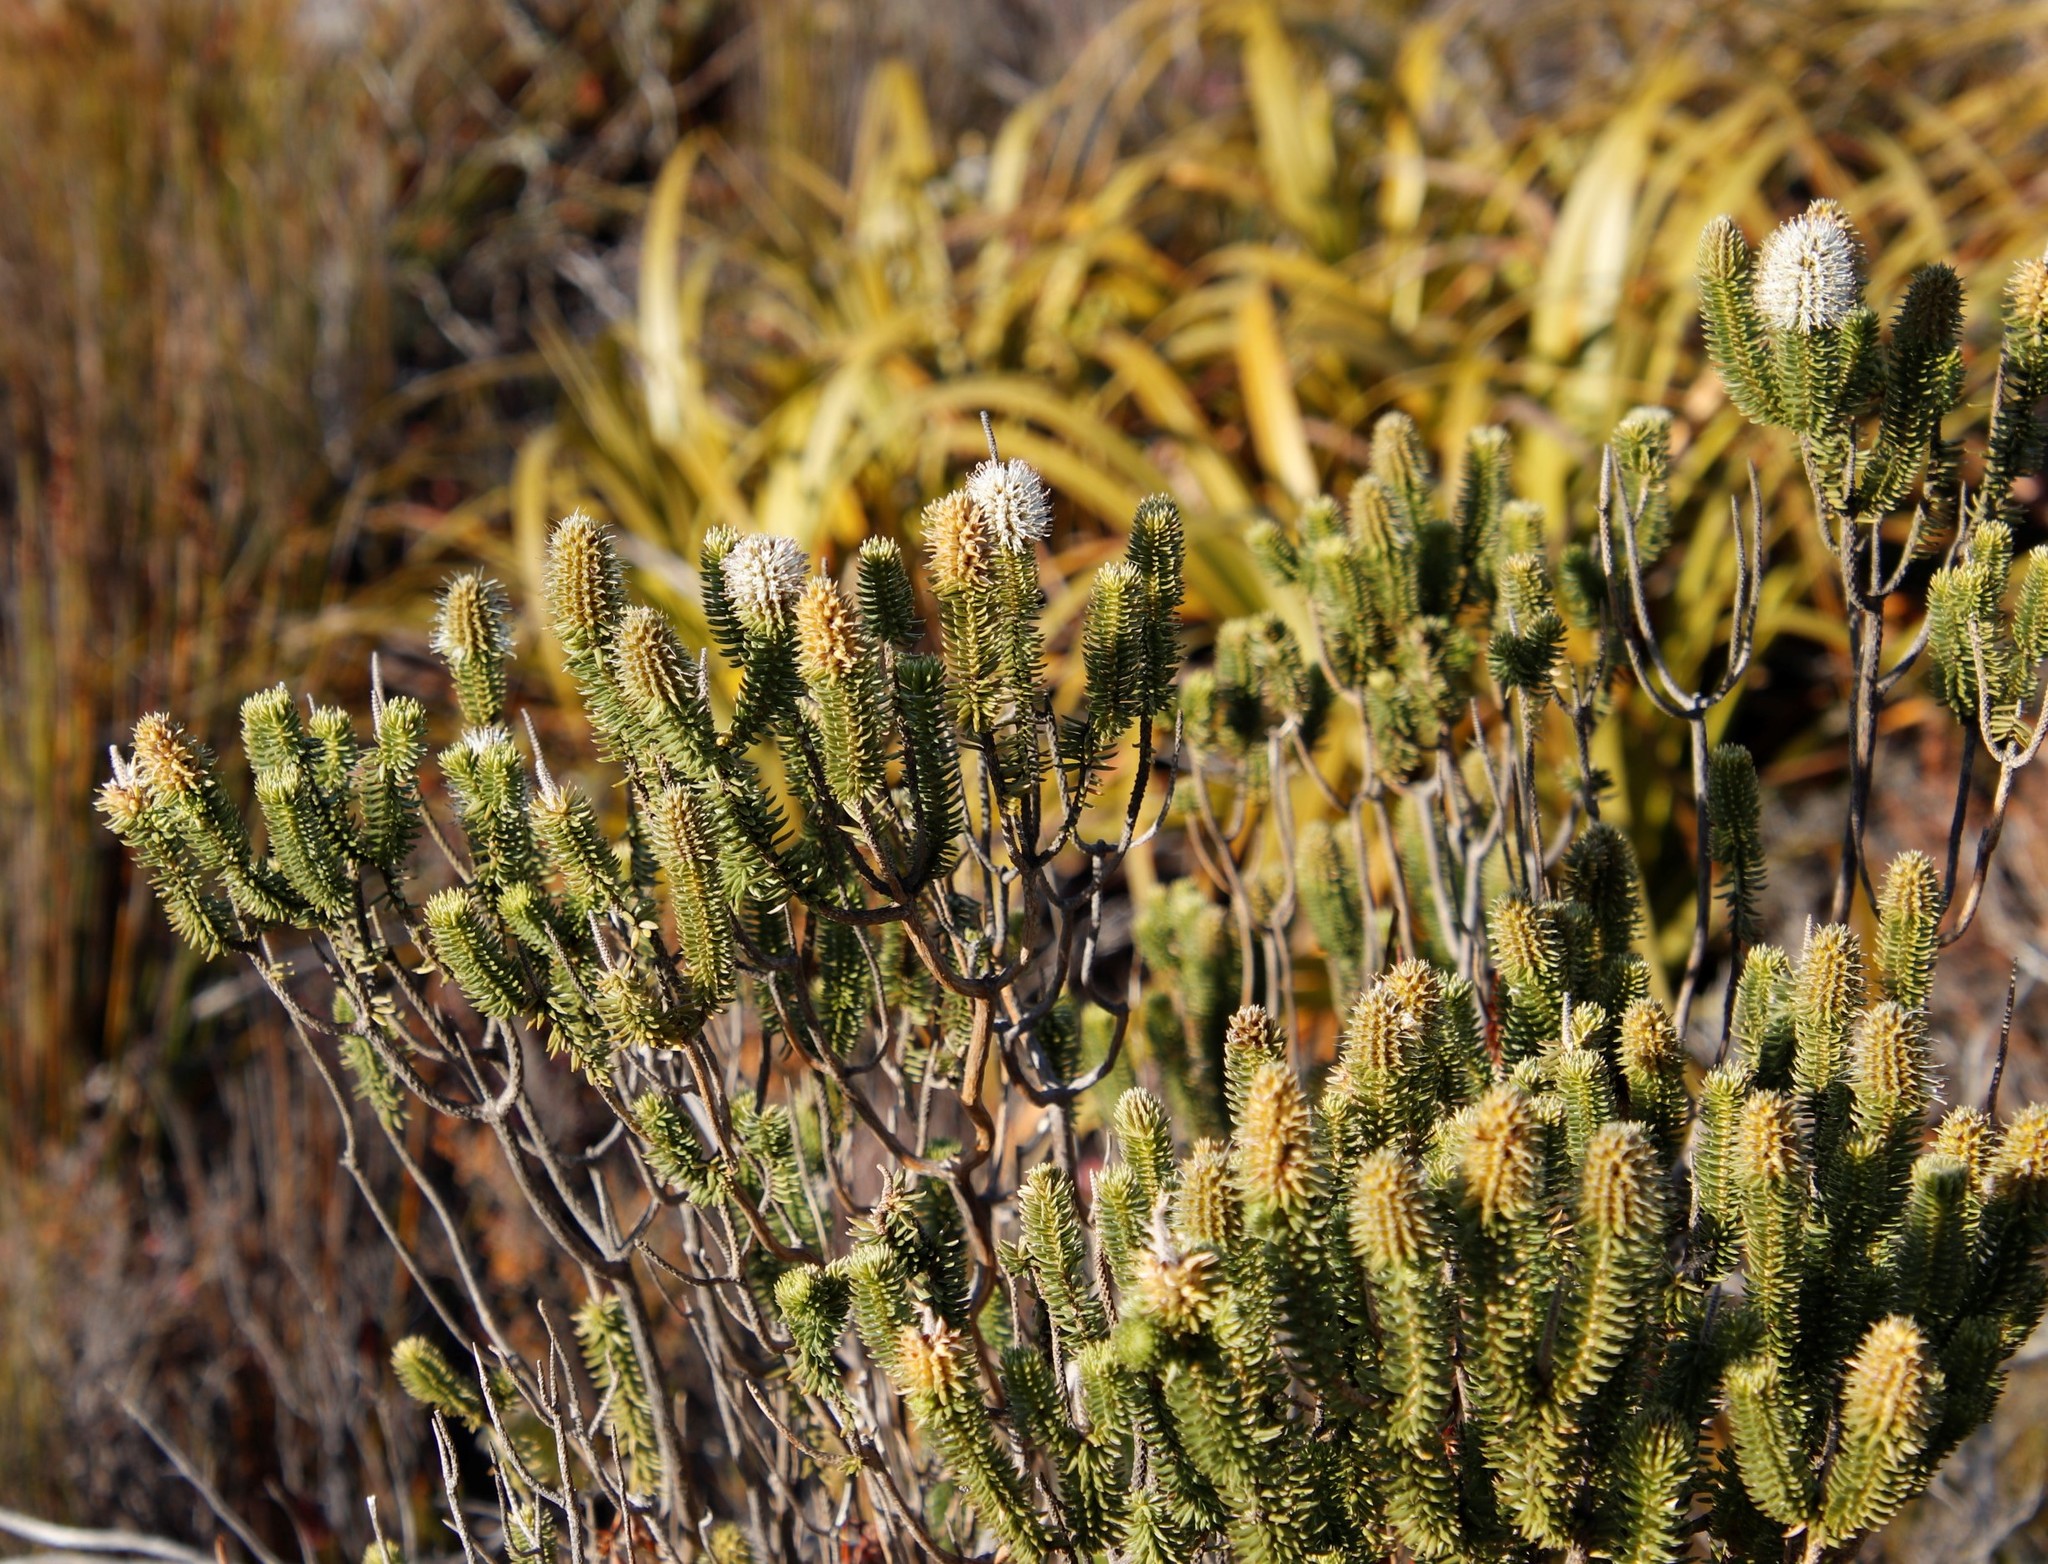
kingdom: Plantae
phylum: Tracheophyta
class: Magnoliopsida
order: Lamiales
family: Stilbaceae
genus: Stilbe
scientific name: Stilbe vestita
